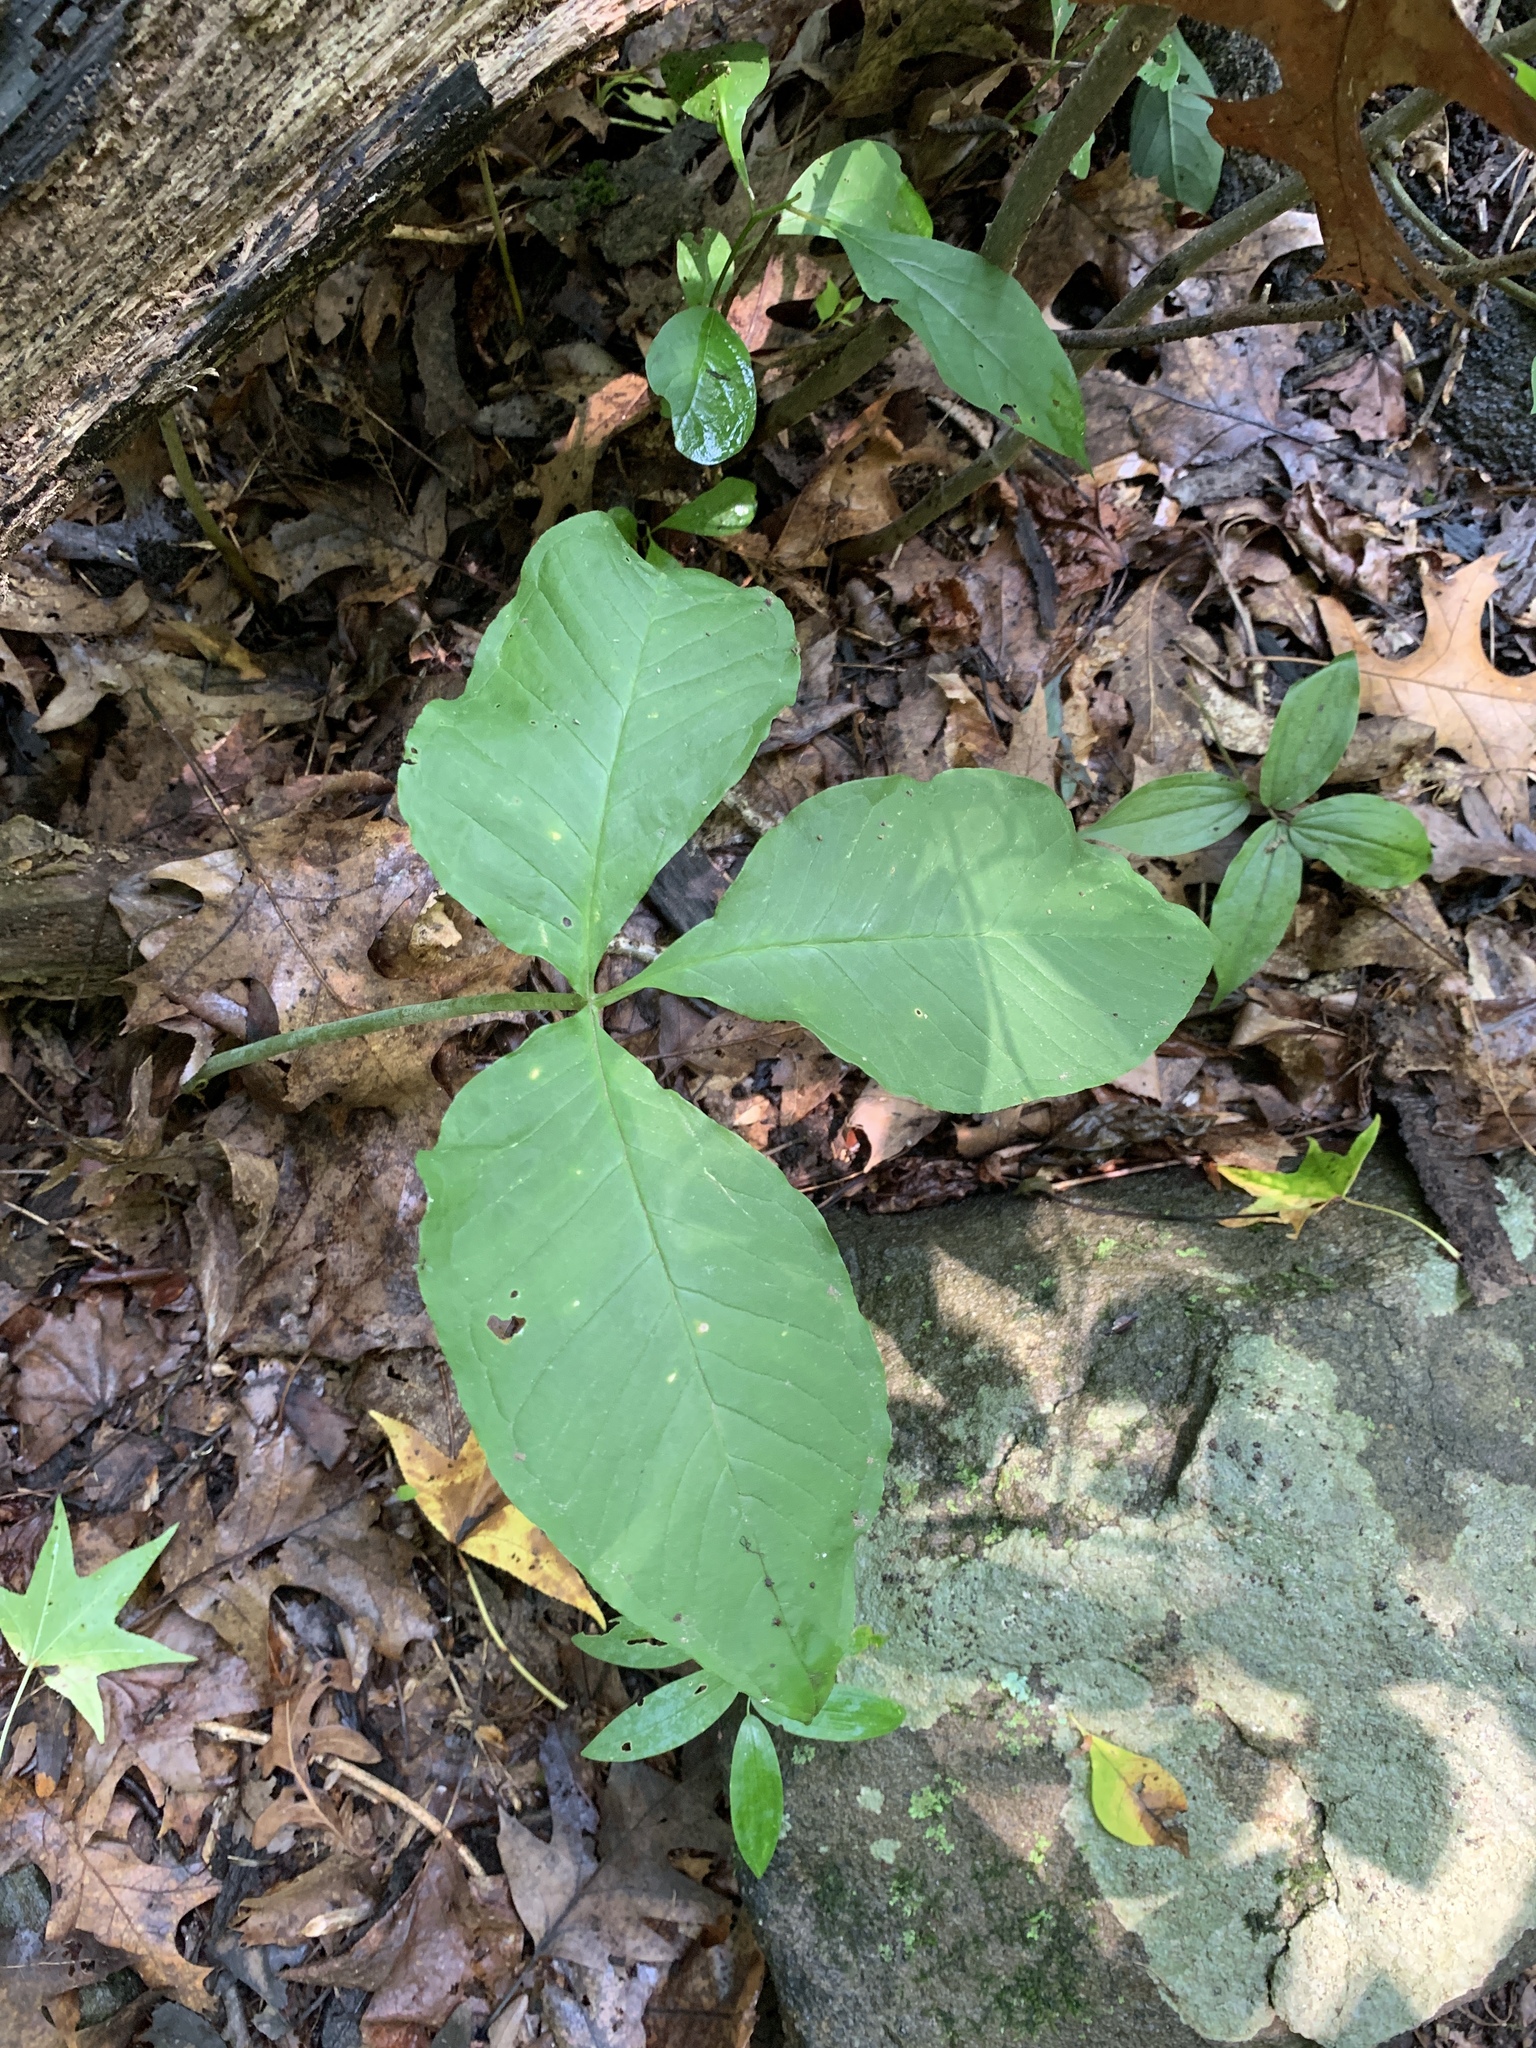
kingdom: Plantae
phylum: Tracheophyta
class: Liliopsida
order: Alismatales
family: Araceae
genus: Arisaema
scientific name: Arisaema triphyllum
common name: Jack-in-the-pulpit
